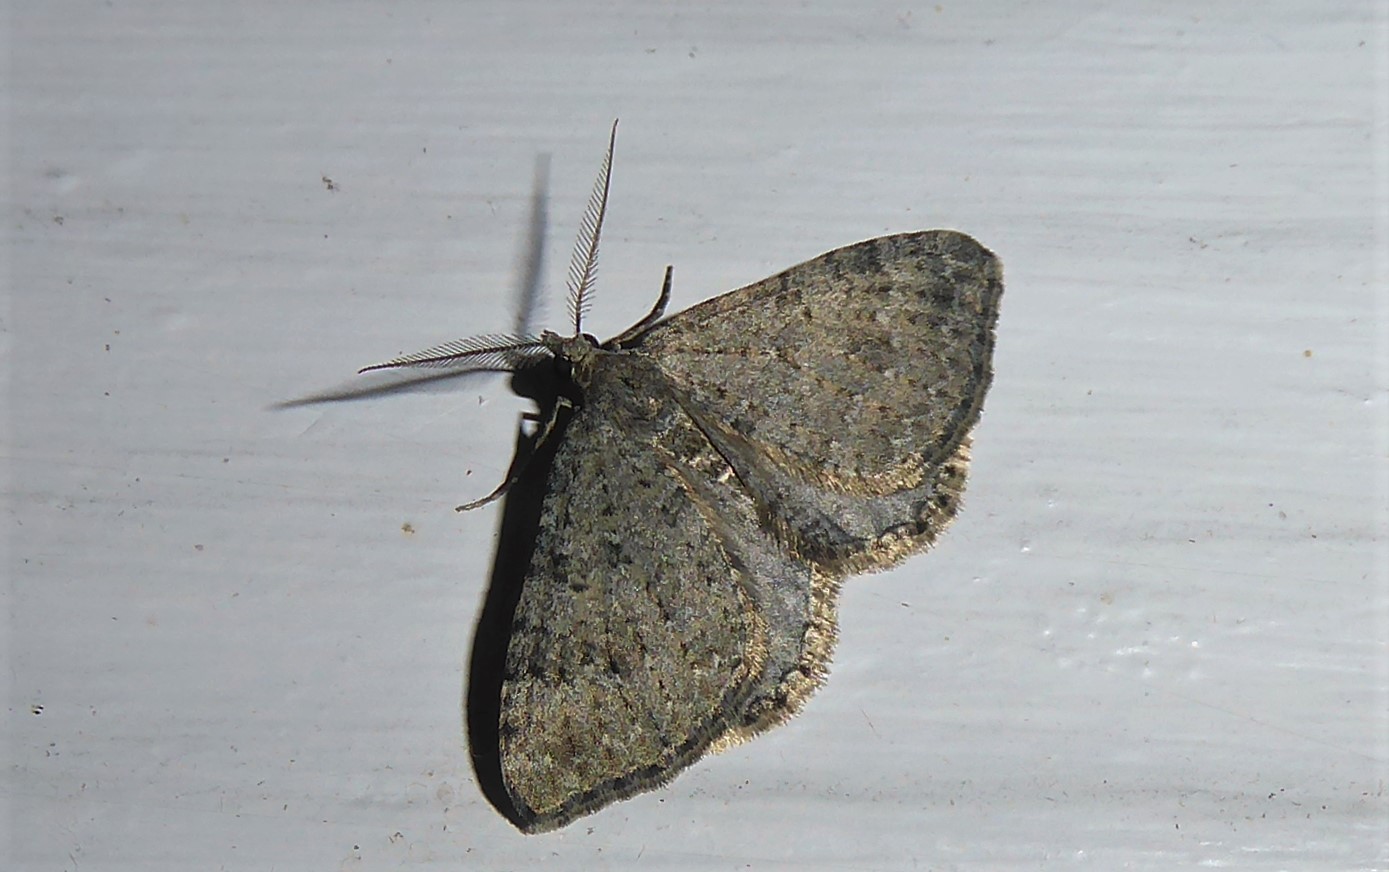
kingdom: Animalia
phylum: Arthropoda
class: Insecta
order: Lepidoptera
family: Geometridae
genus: Helastia
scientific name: Helastia corcularia
